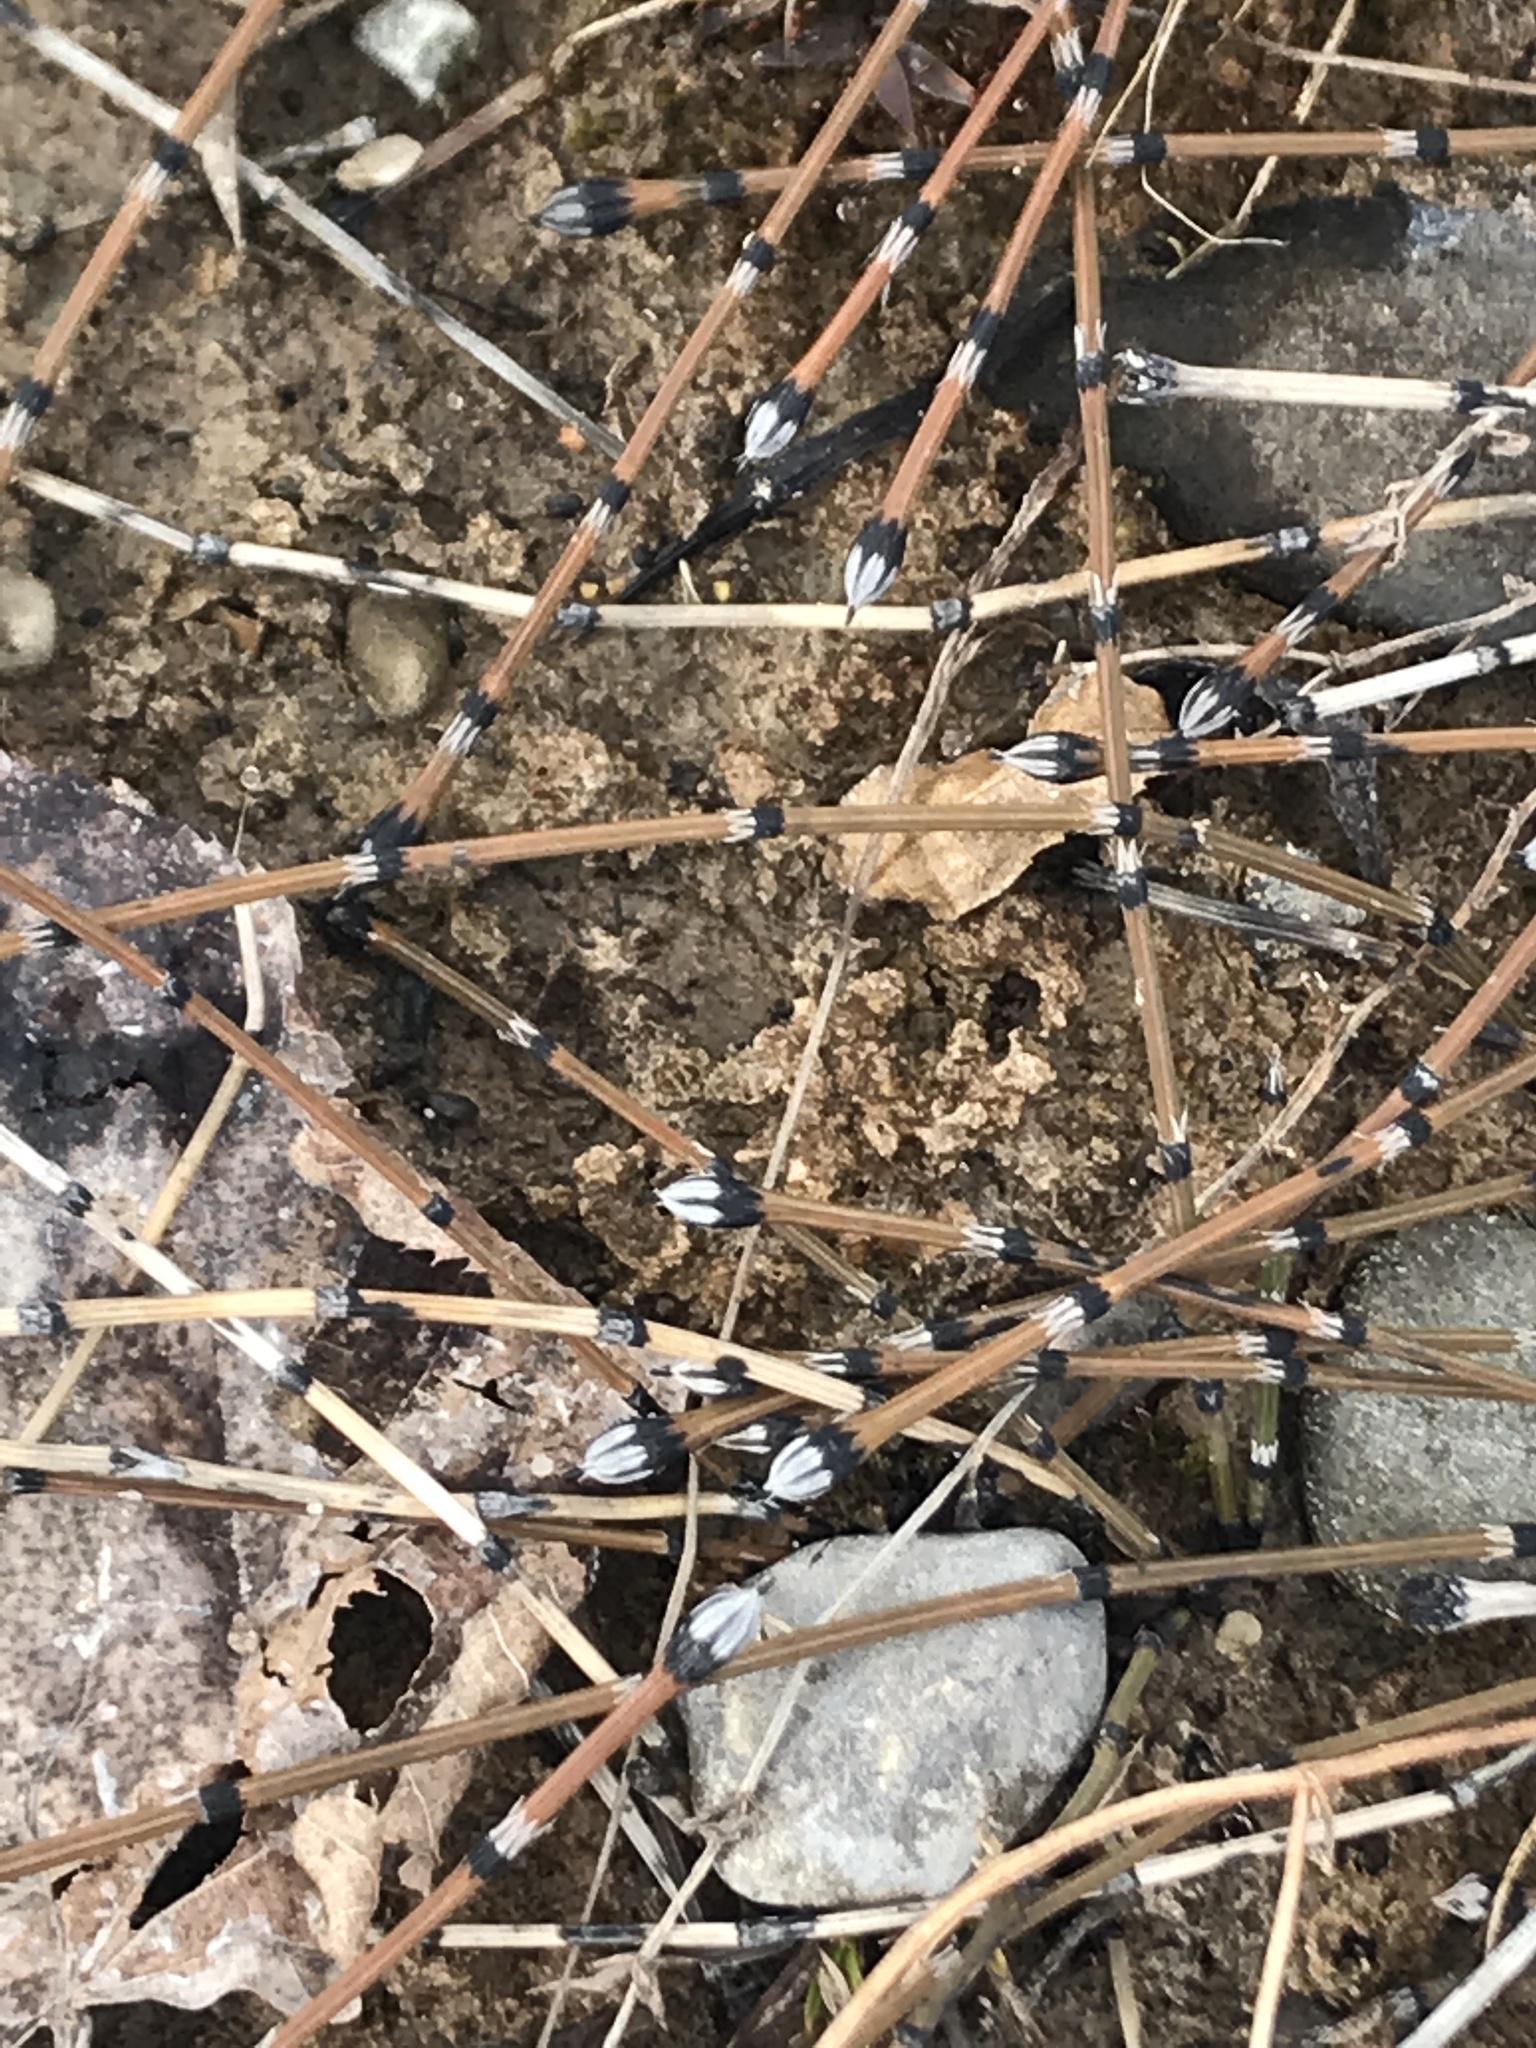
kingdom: Plantae
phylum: Tracheophyta
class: Polypodiopsida
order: Equisetales
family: Equisetaceae
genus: Equisetum
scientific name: Equisetum variegatum
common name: Variegated horsetail
